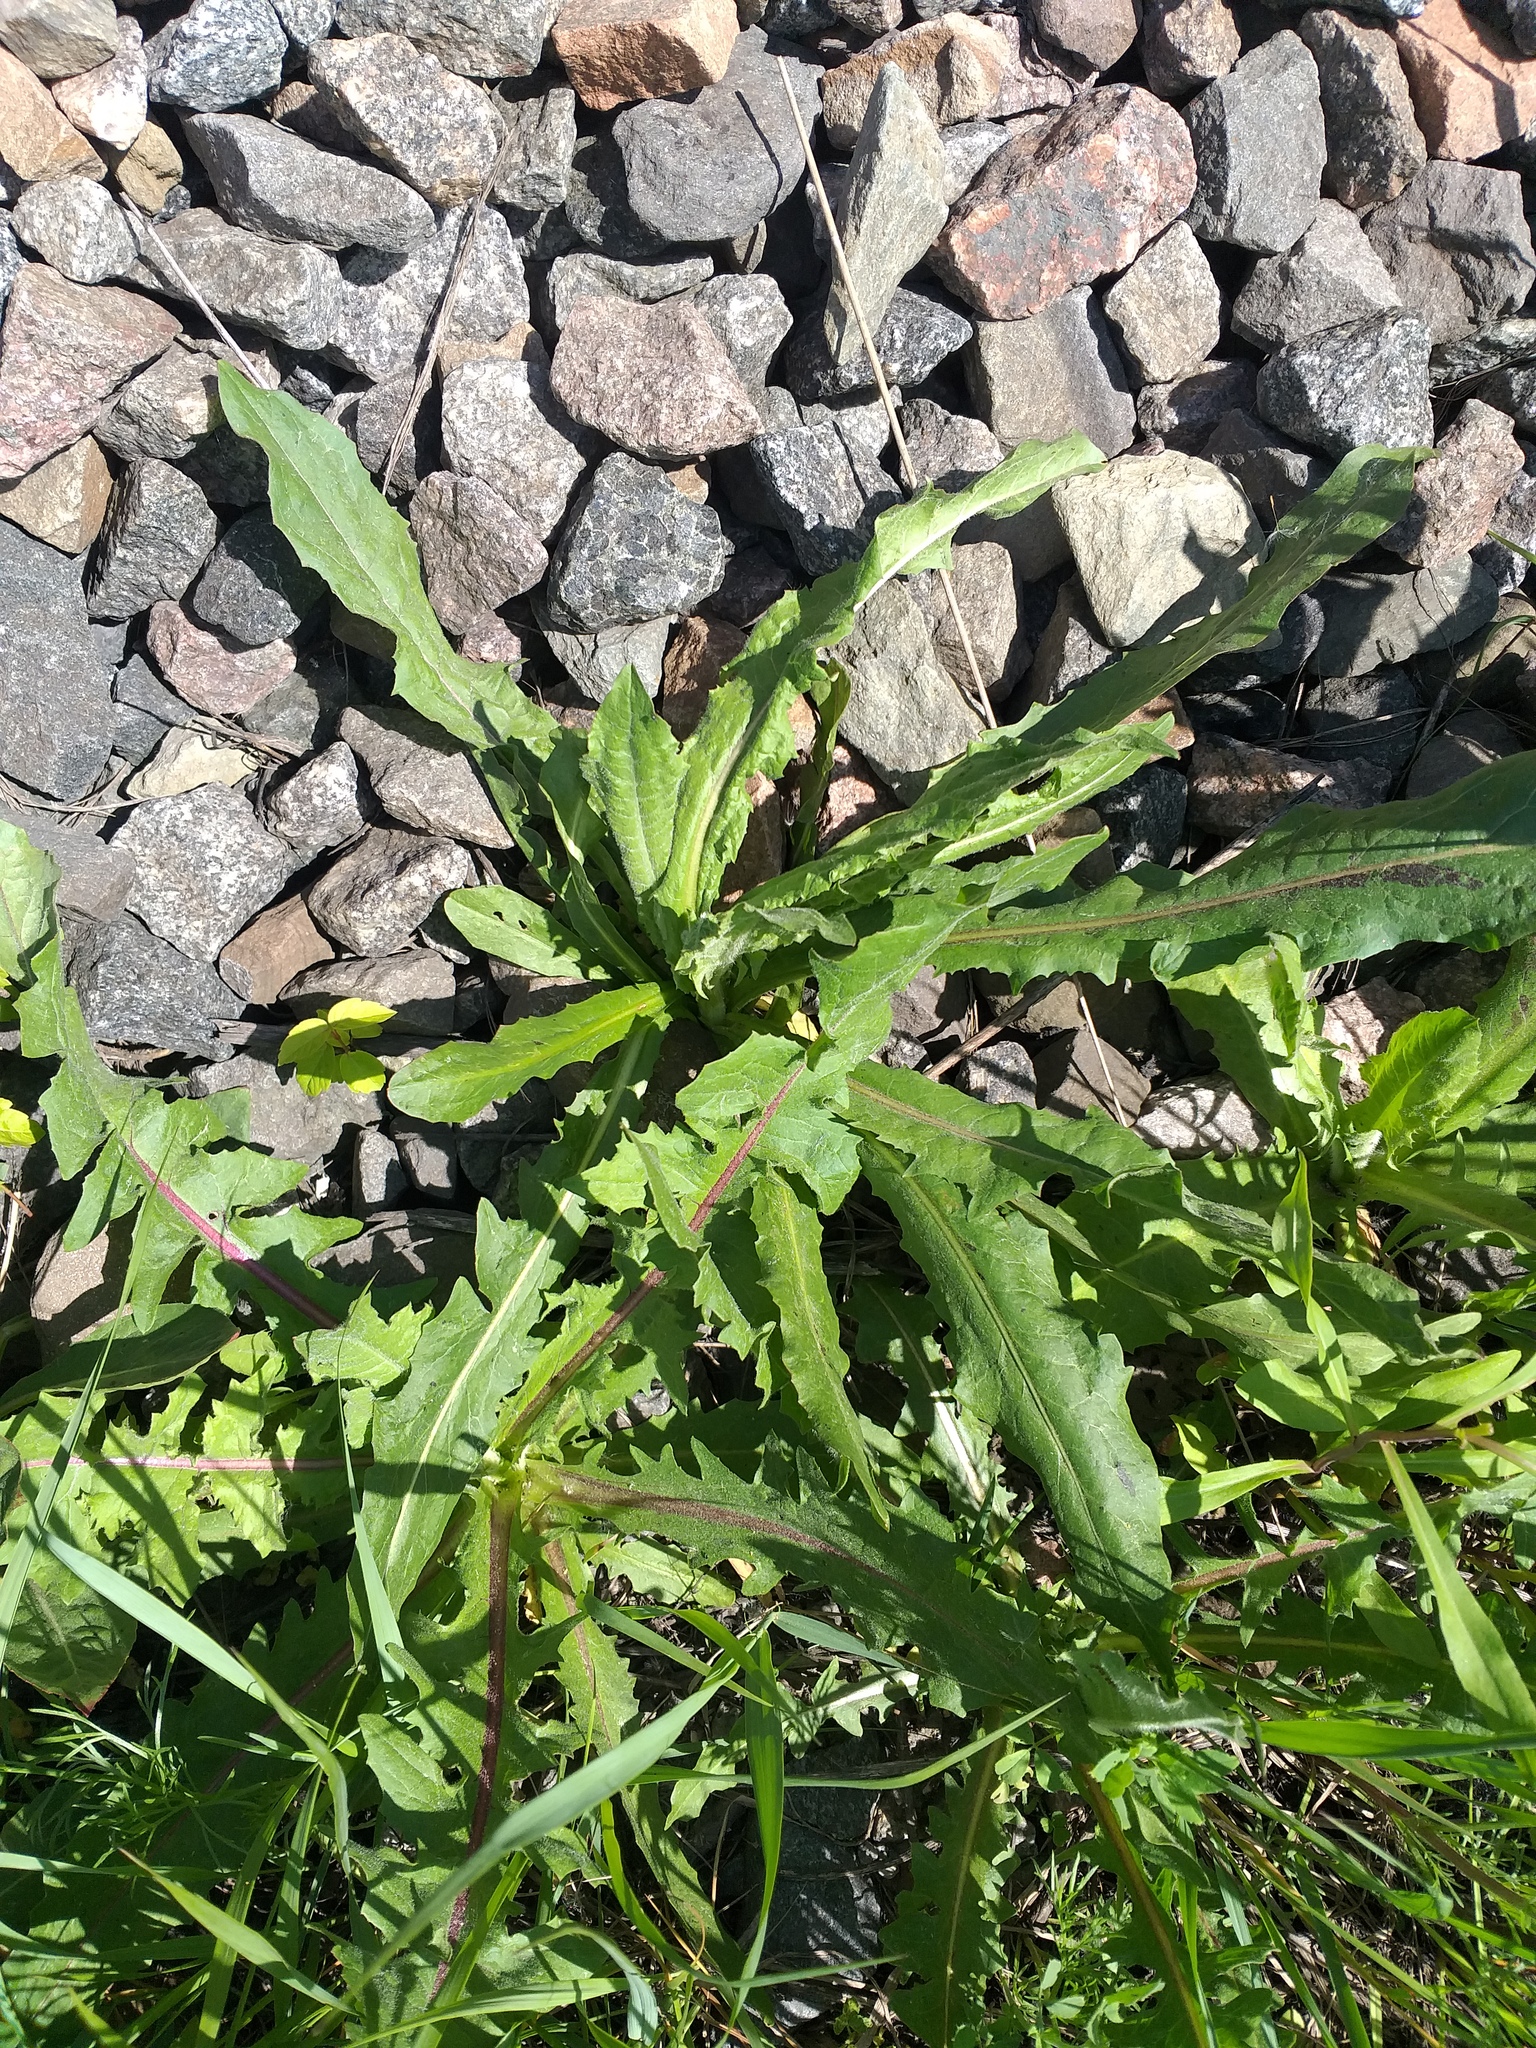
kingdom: Plantae
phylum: Tracheophyta
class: Magnoliopsida
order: Asterales
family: Asteraceae
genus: Cichorium
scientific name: Cichorium intybus
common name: Chicory
